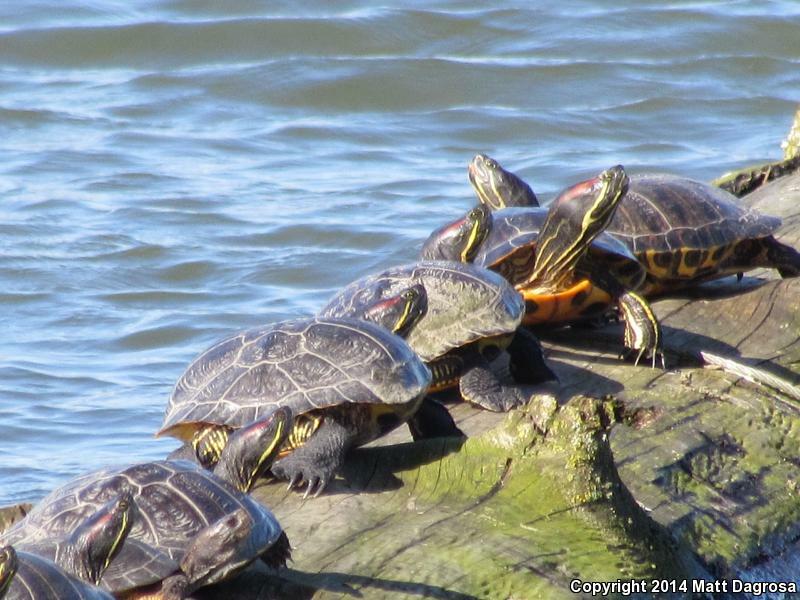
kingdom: Animalia
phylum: Chordata
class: Testudines
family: Emydidae
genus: Trachemys
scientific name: Trachemys scripta
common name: Slider
